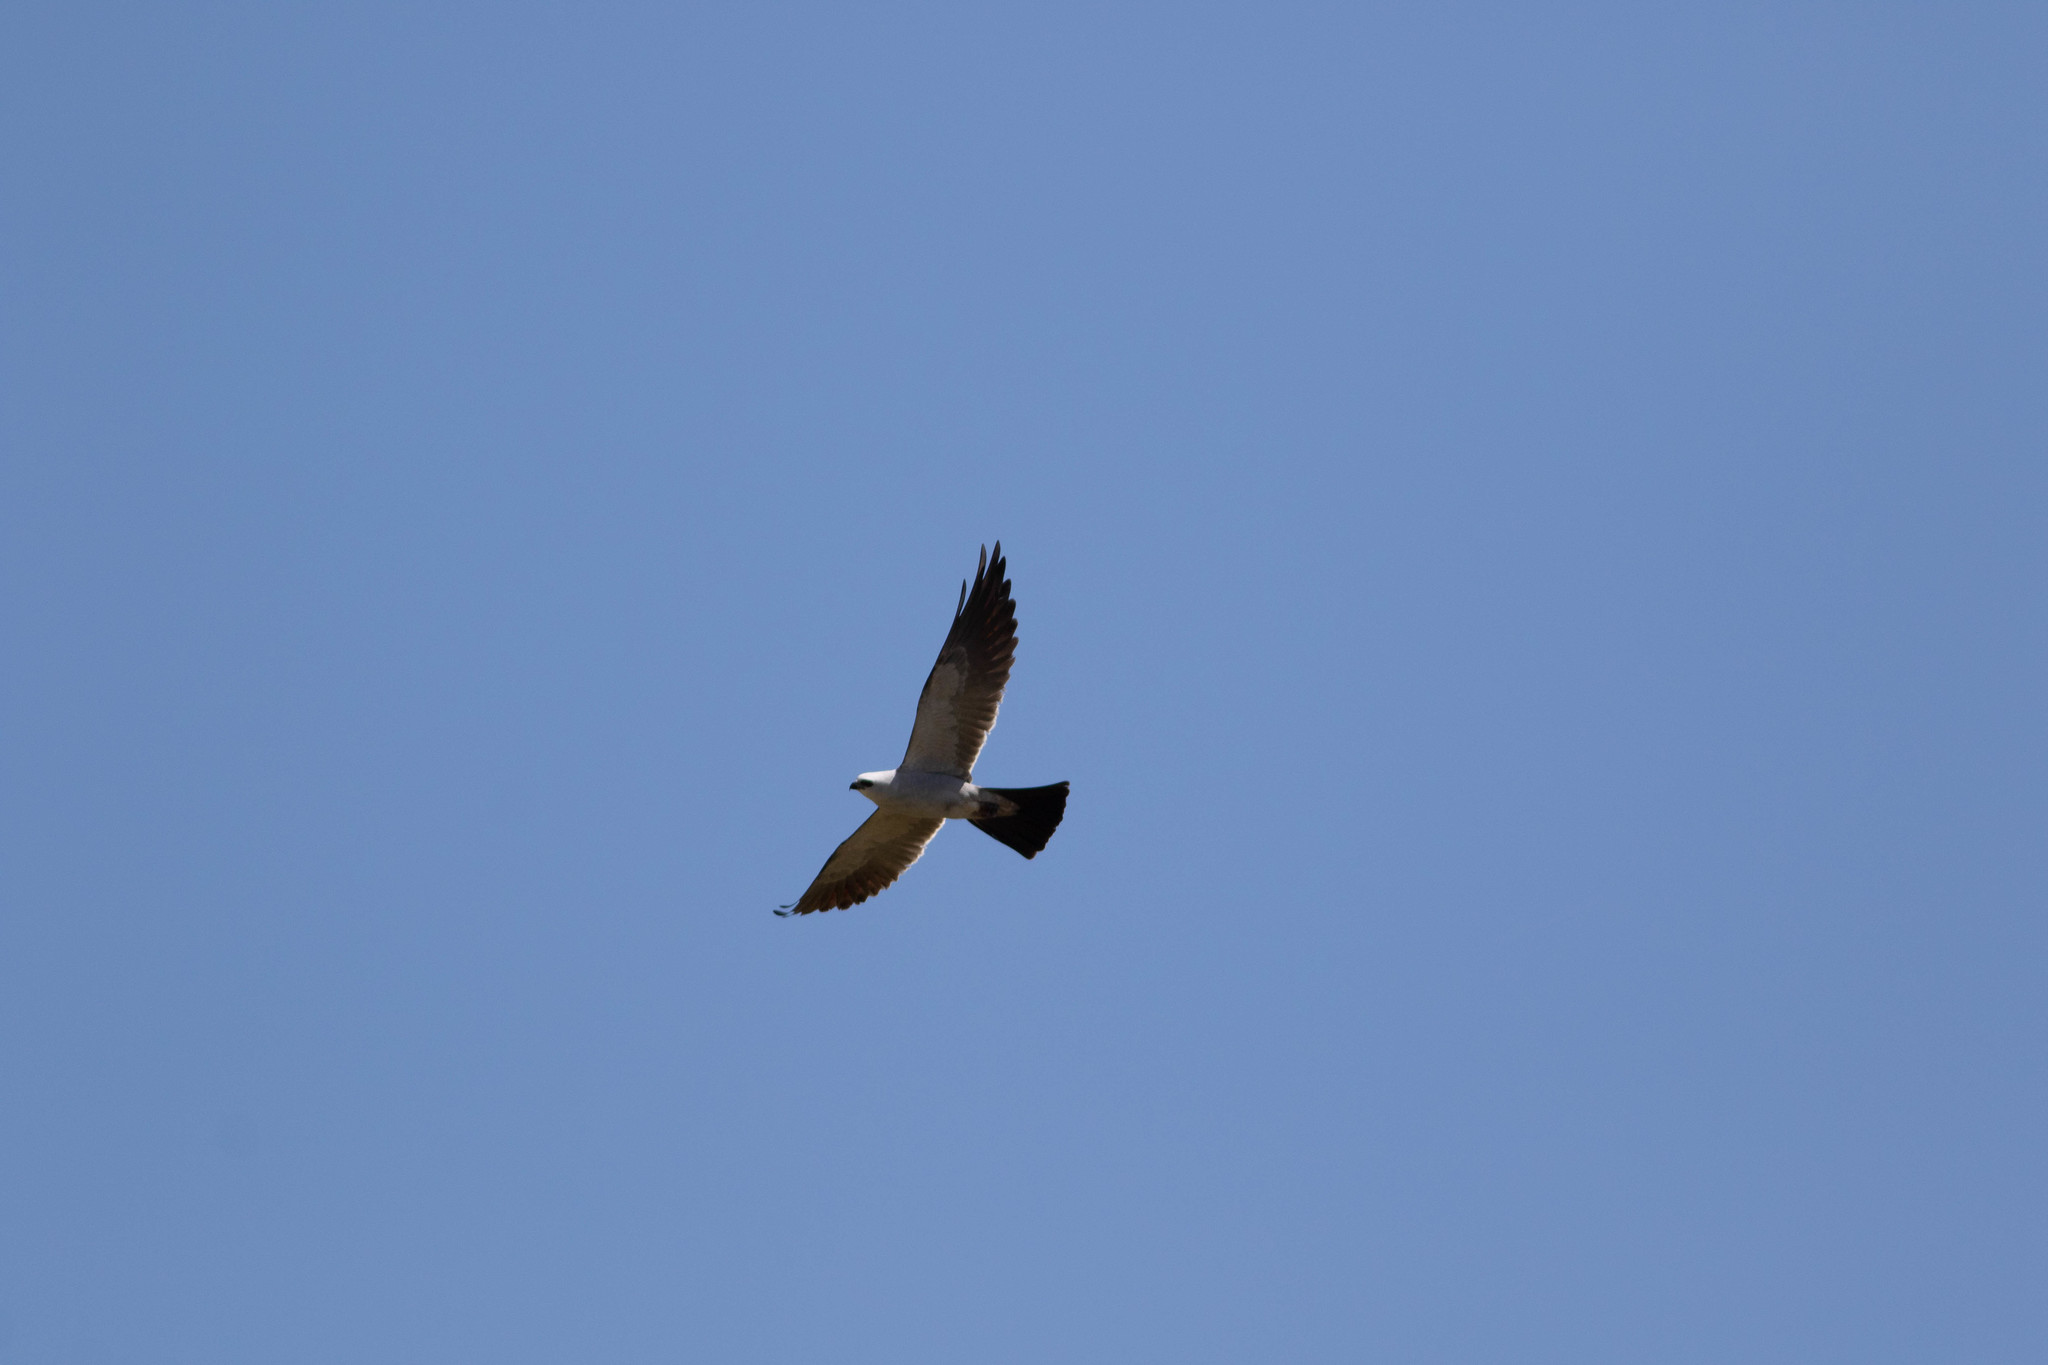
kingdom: Animalia
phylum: Chordata
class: Aves
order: Accipitriformes
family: Accipitridae
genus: Ictinia
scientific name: Ictinia mississippiensis
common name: Mississippi kite
